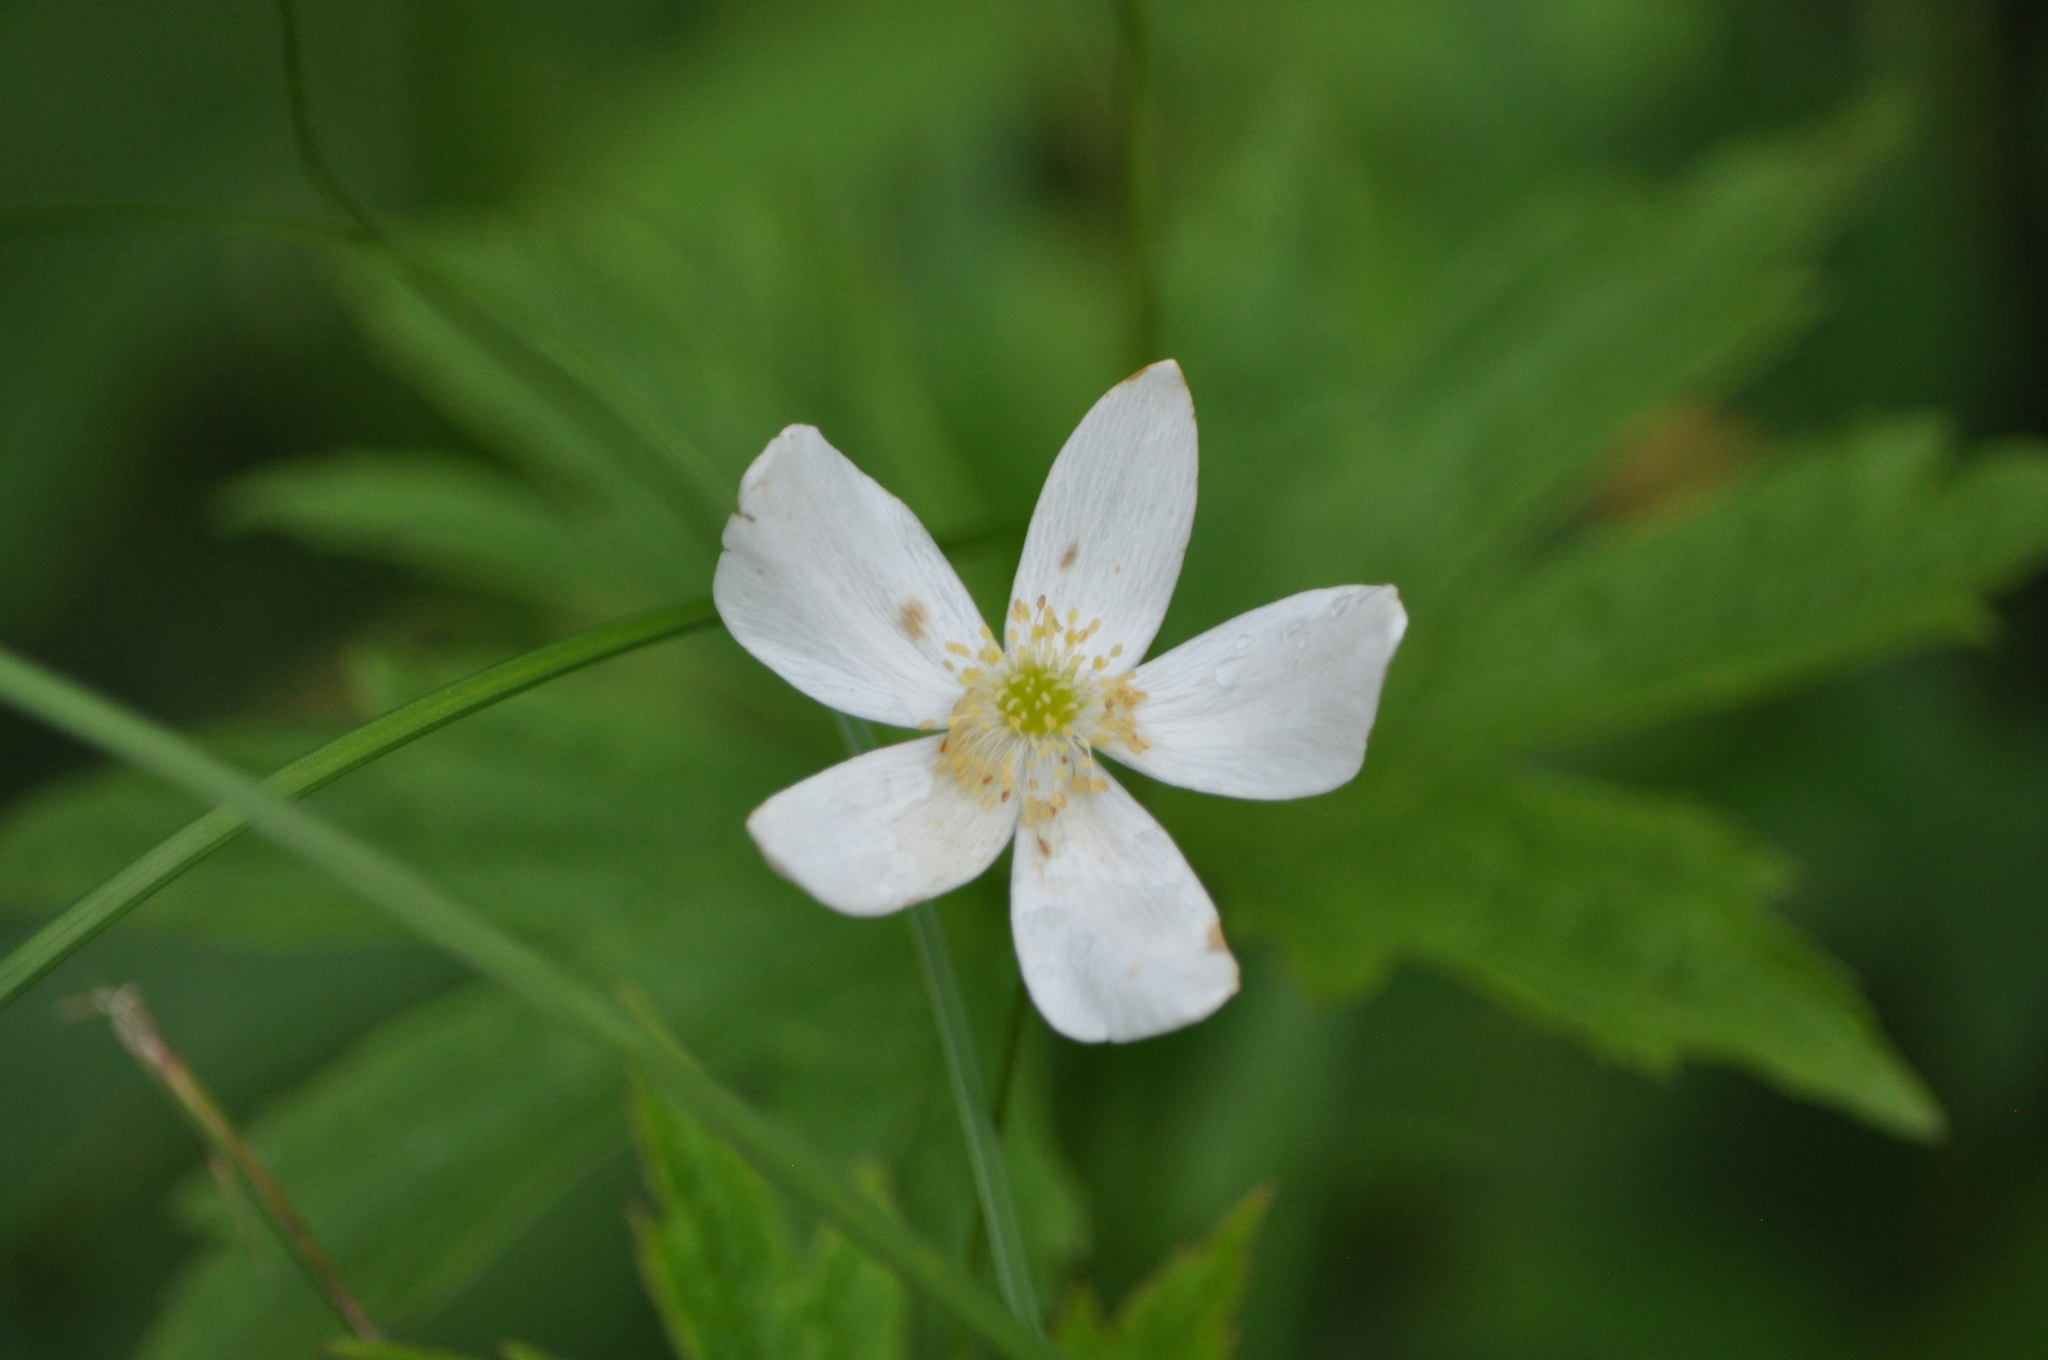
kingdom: Plantae
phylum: Tracheophyta
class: Magnoliopsida
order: Ranunculales
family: Ranunculaceae
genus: Anemonastrum
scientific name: Anemonastrum canadense
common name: Canada anemone
